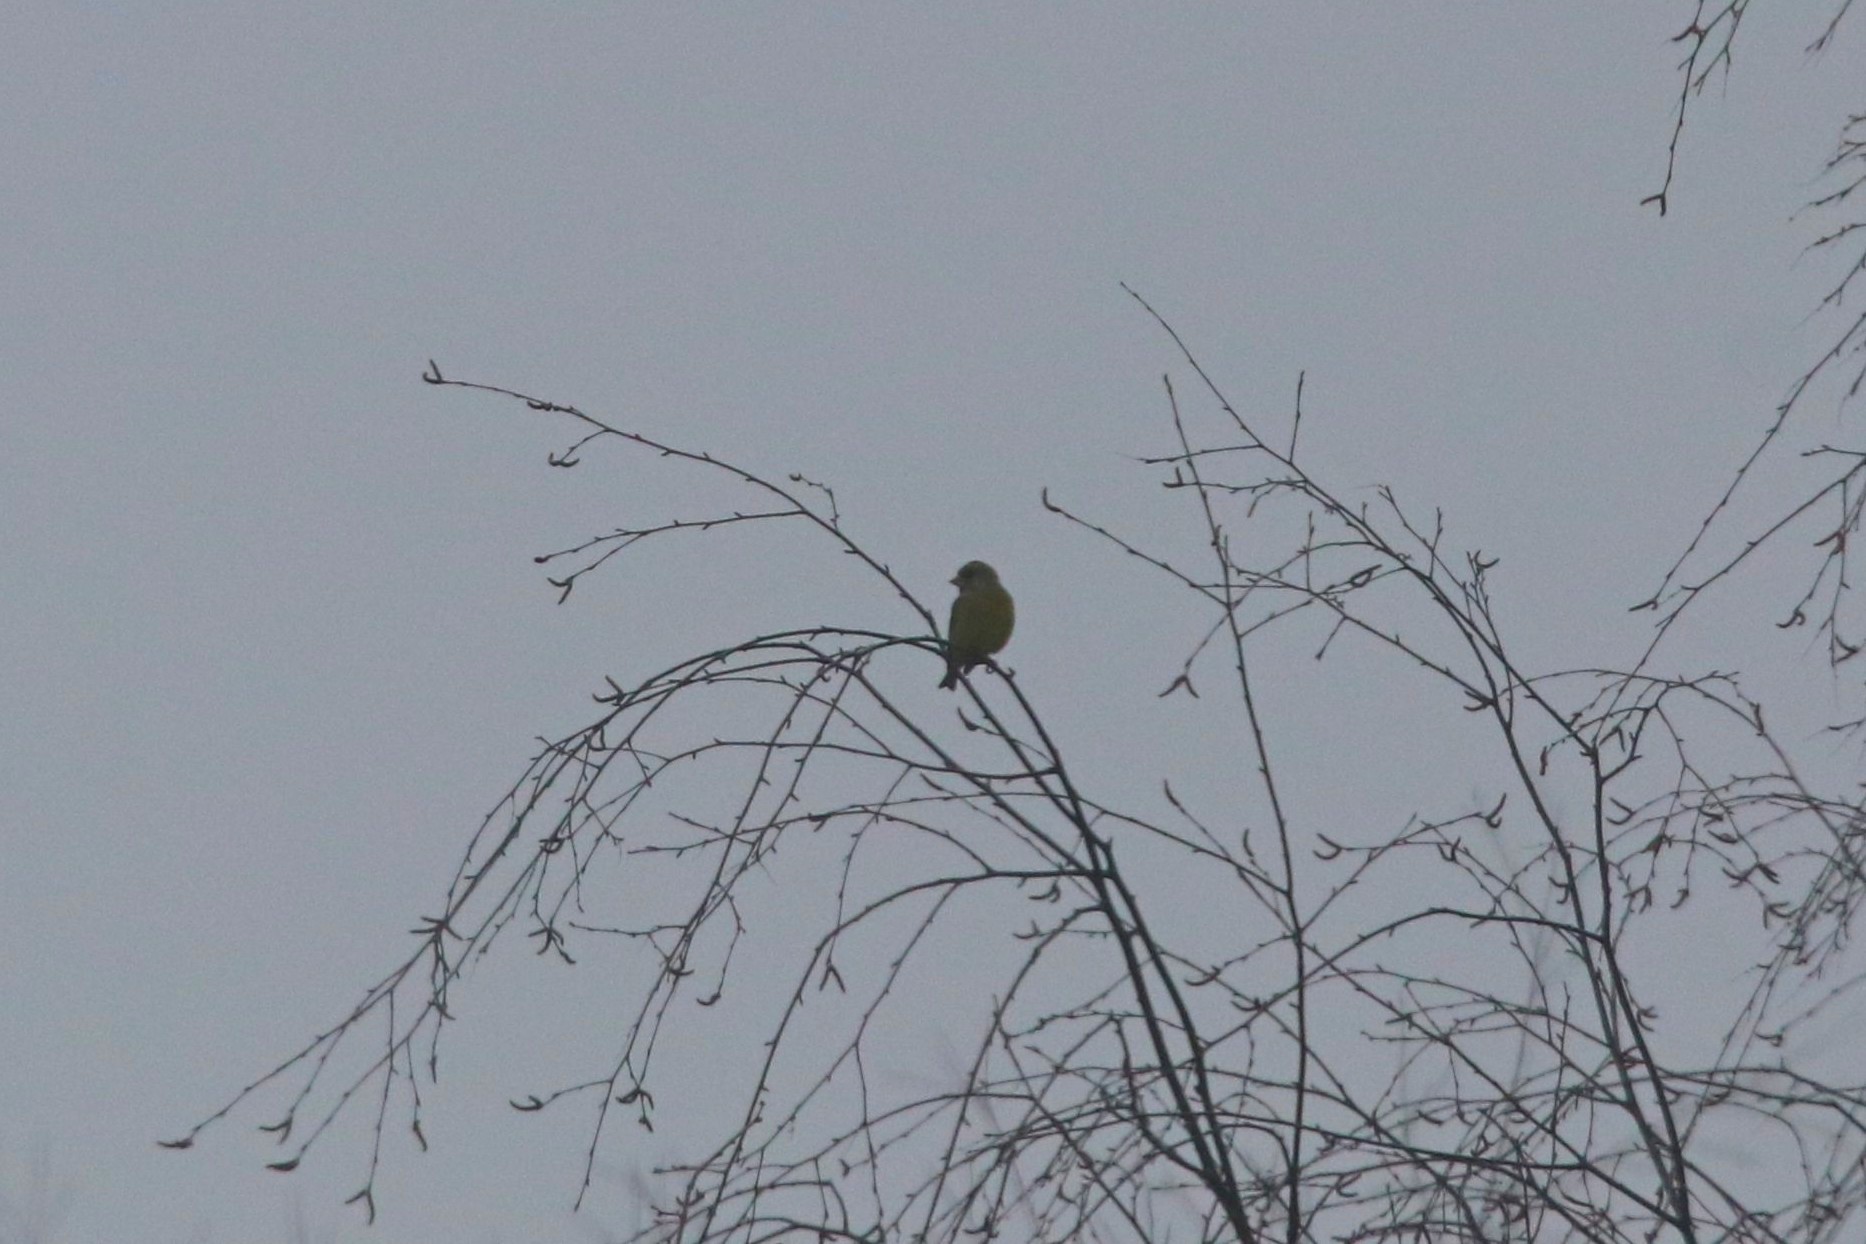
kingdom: Plantae
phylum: Tracheophyta
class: Liliopsida
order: Poales
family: Poaceae
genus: Chloris
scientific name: Chloris chloris
